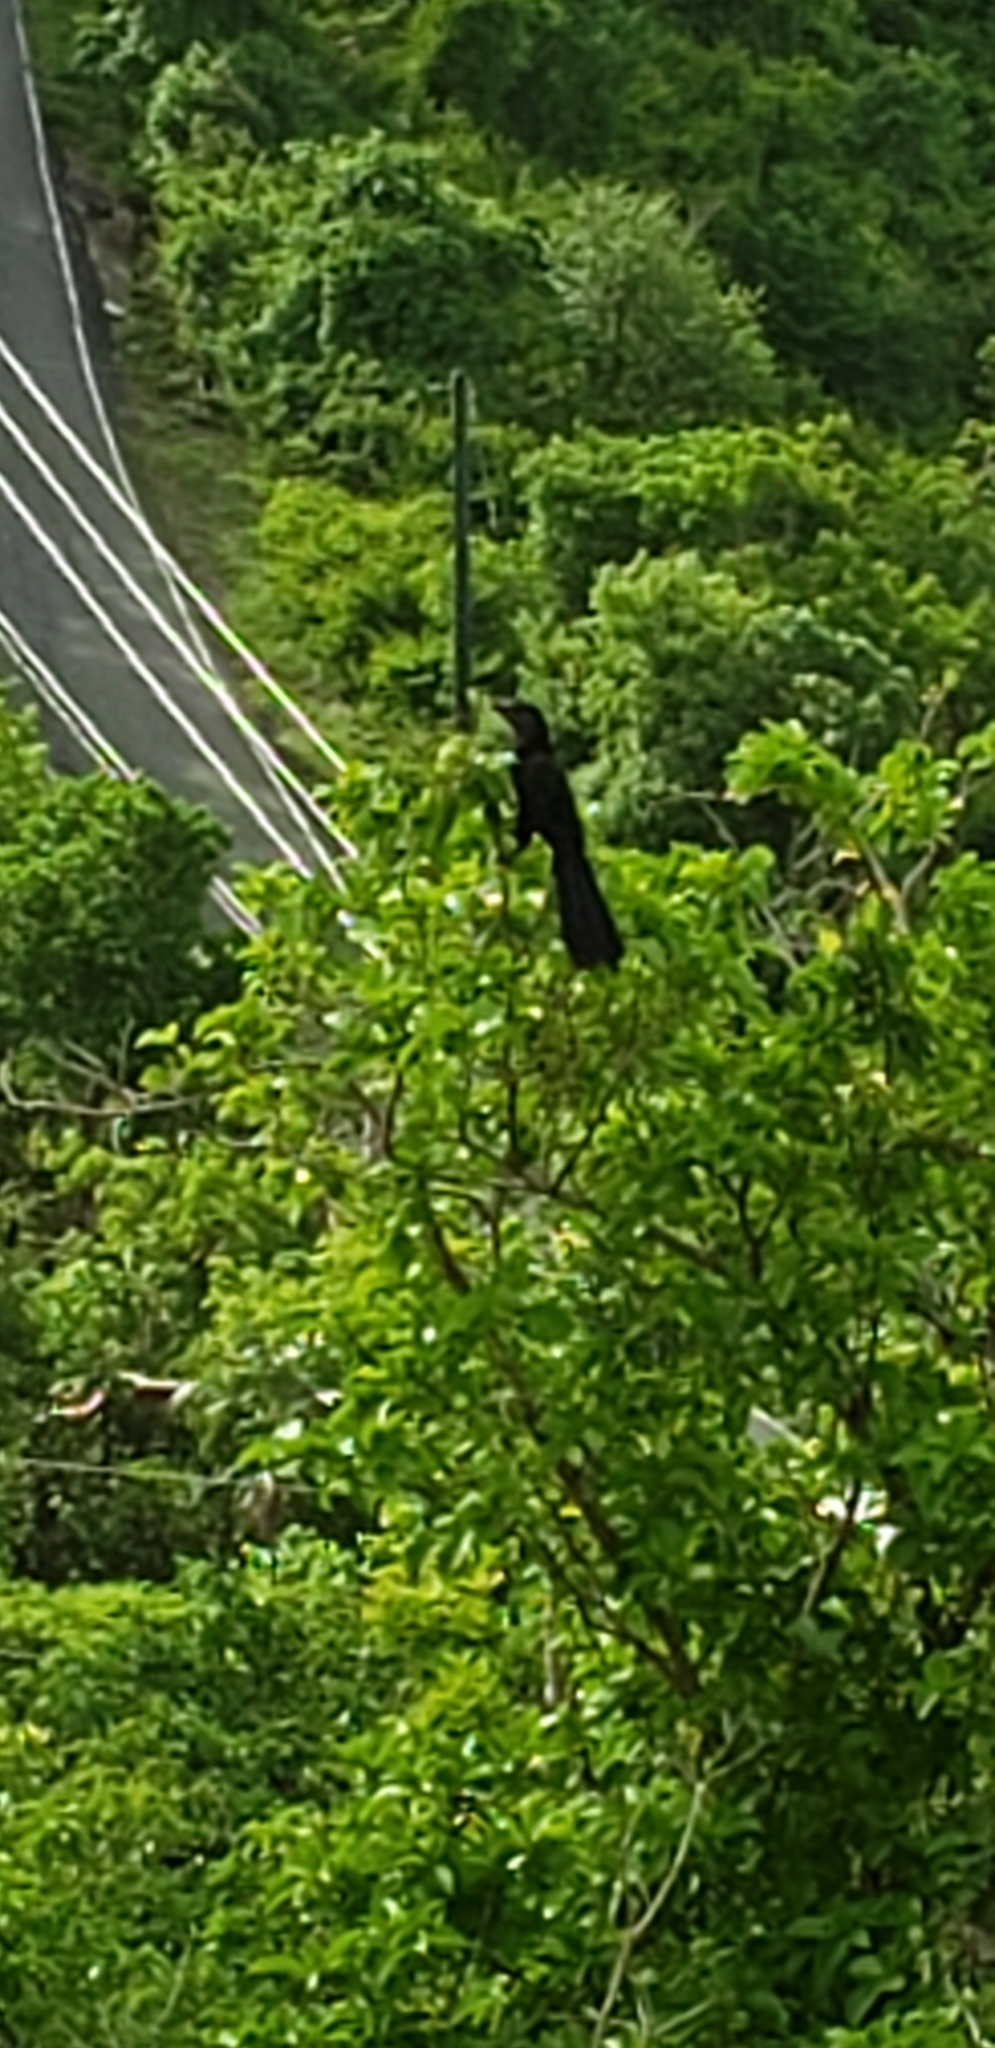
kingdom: Animalia
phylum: Chordata
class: Aves
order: Cuculiformes
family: Cuculidae
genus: Crotophaga
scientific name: Crotophaga ani
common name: Smooth-billed ani
